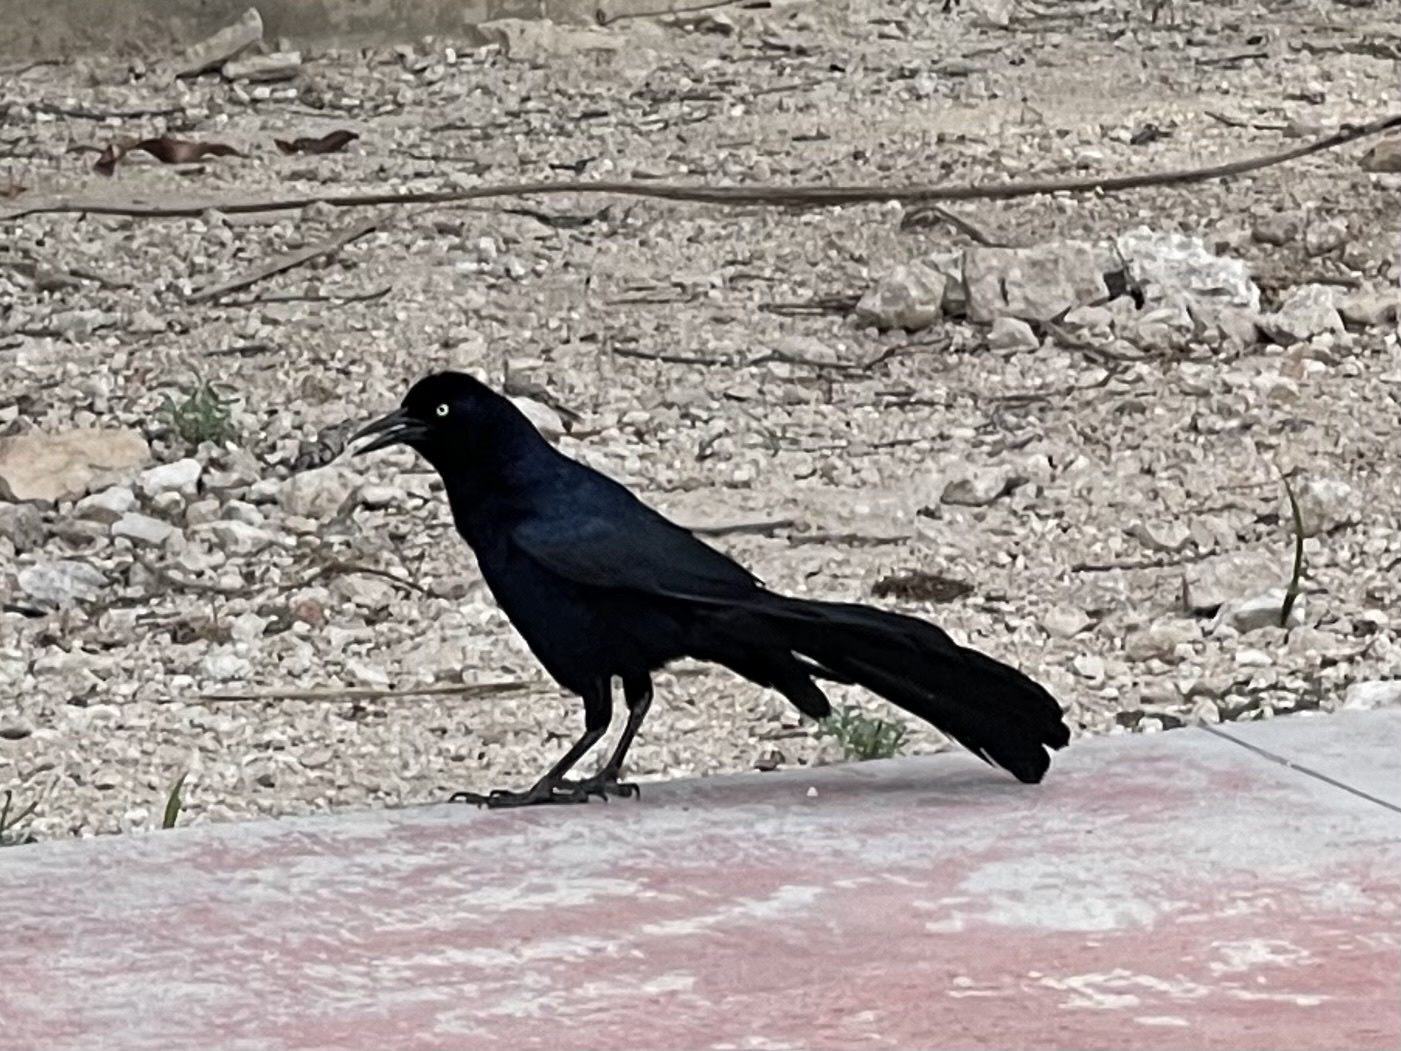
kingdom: Animalia
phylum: Chordata
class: Aves
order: Passeriformes
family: Icteridae
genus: Quiscalus
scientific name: Quiscalus mexicanus
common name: Great-tailed grackle
